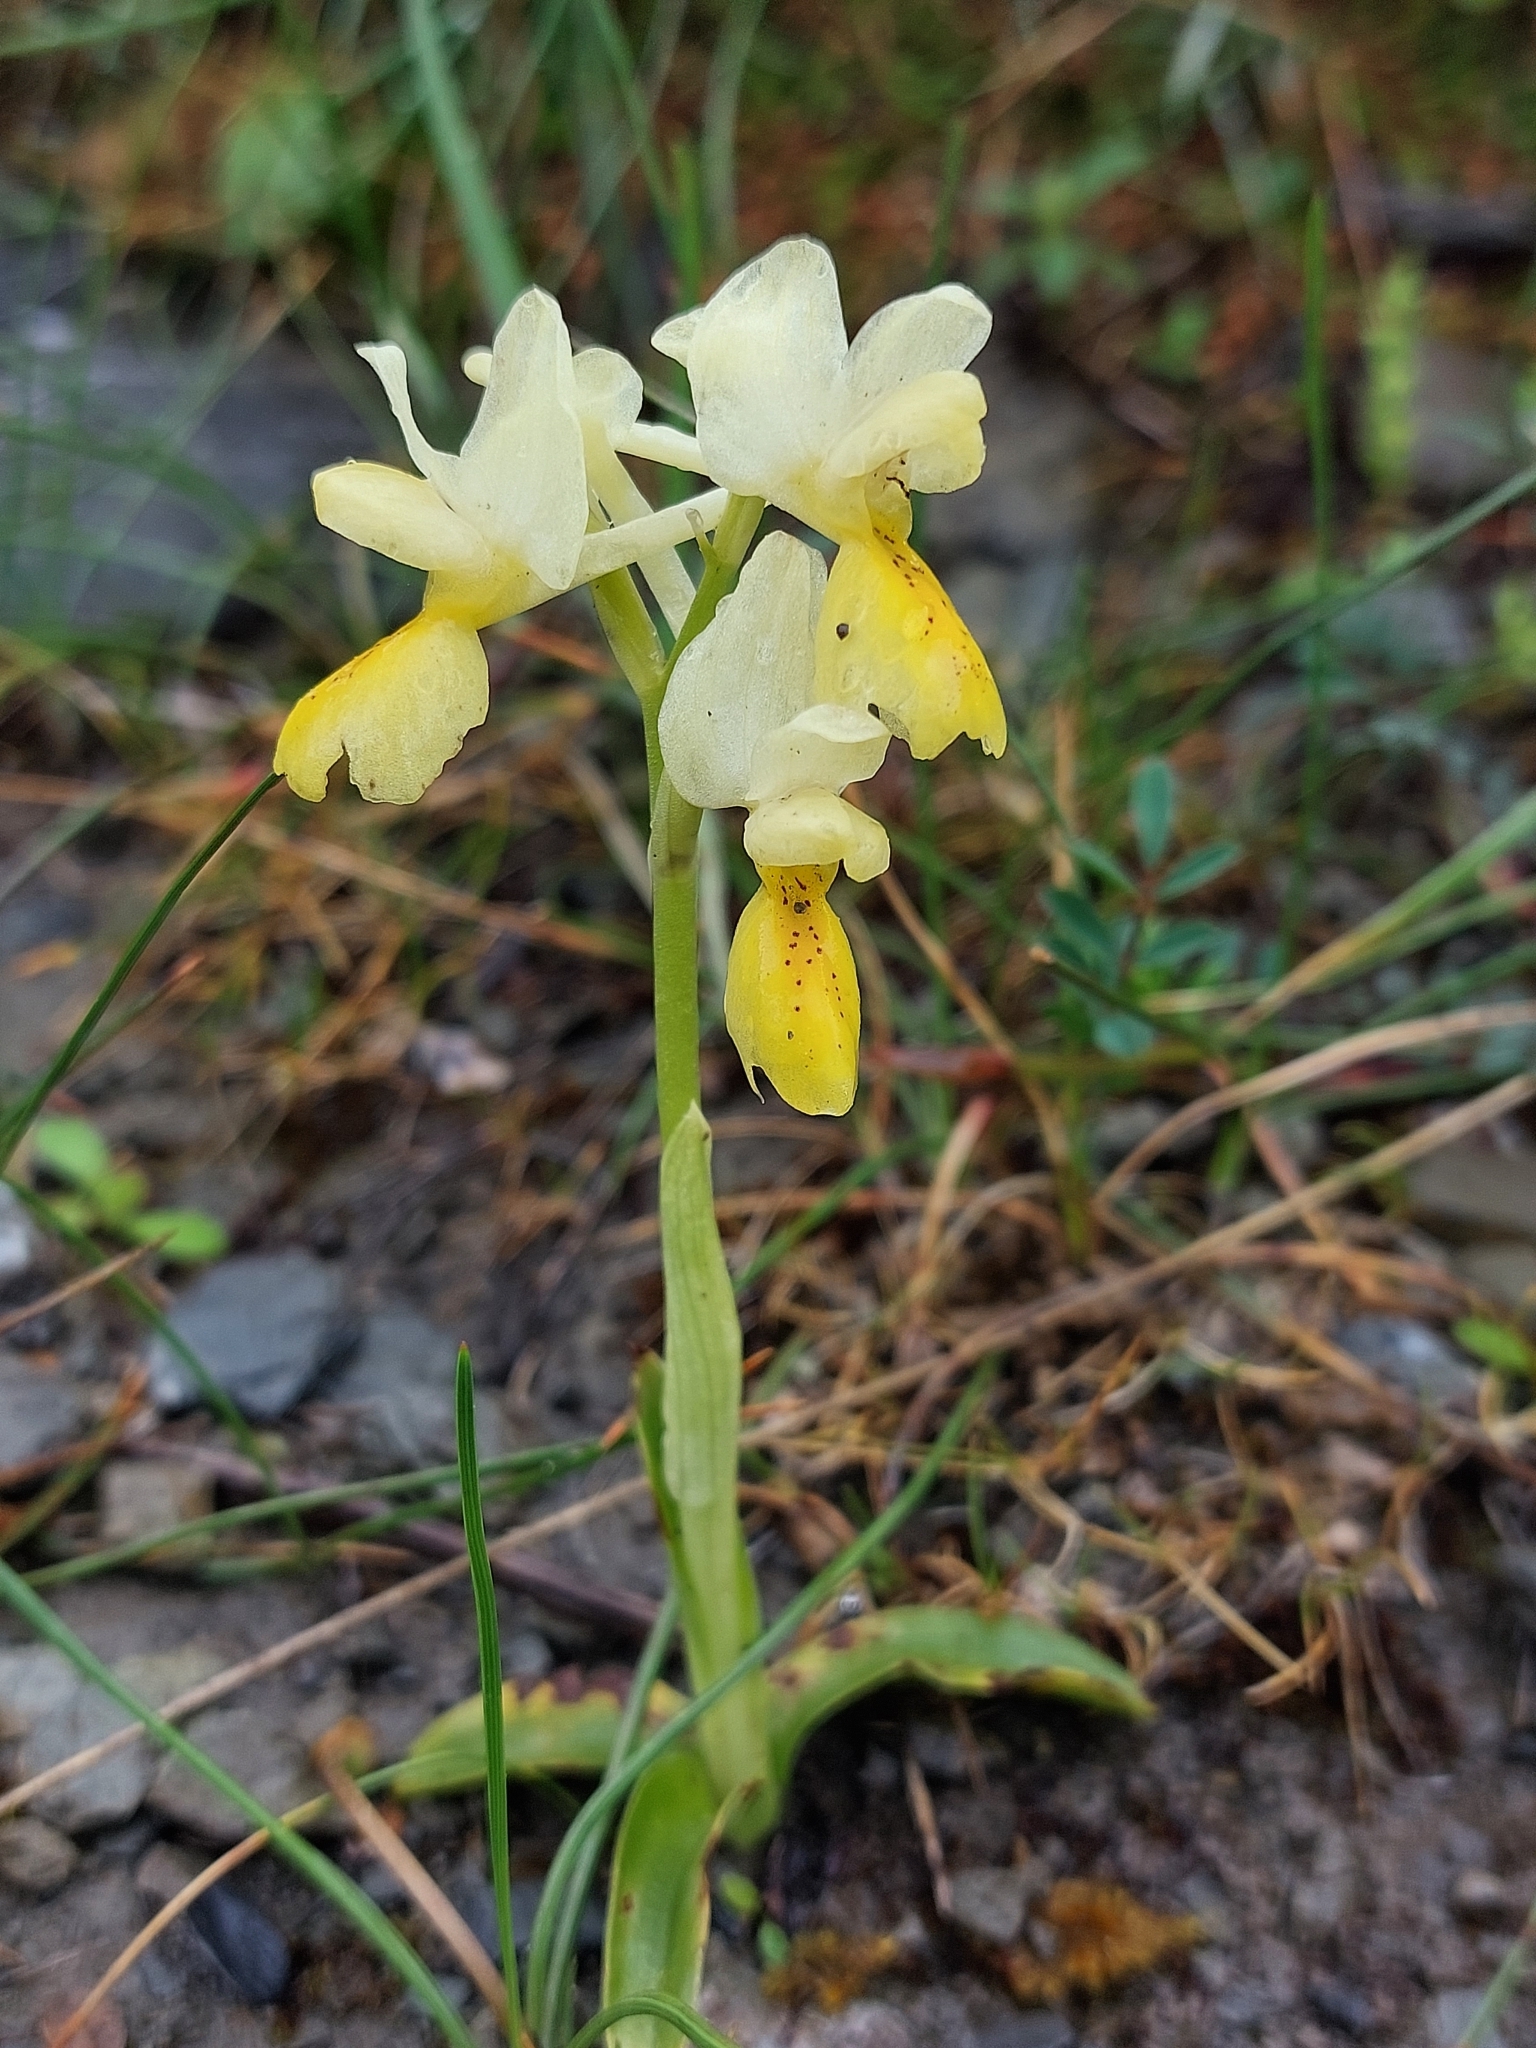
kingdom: Plantae
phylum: Tracheophyta
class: Liliopsida
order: Asparagales
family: Orchidaceae
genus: Orchis
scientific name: Orchis pauciflora
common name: Few-flowered orchid
